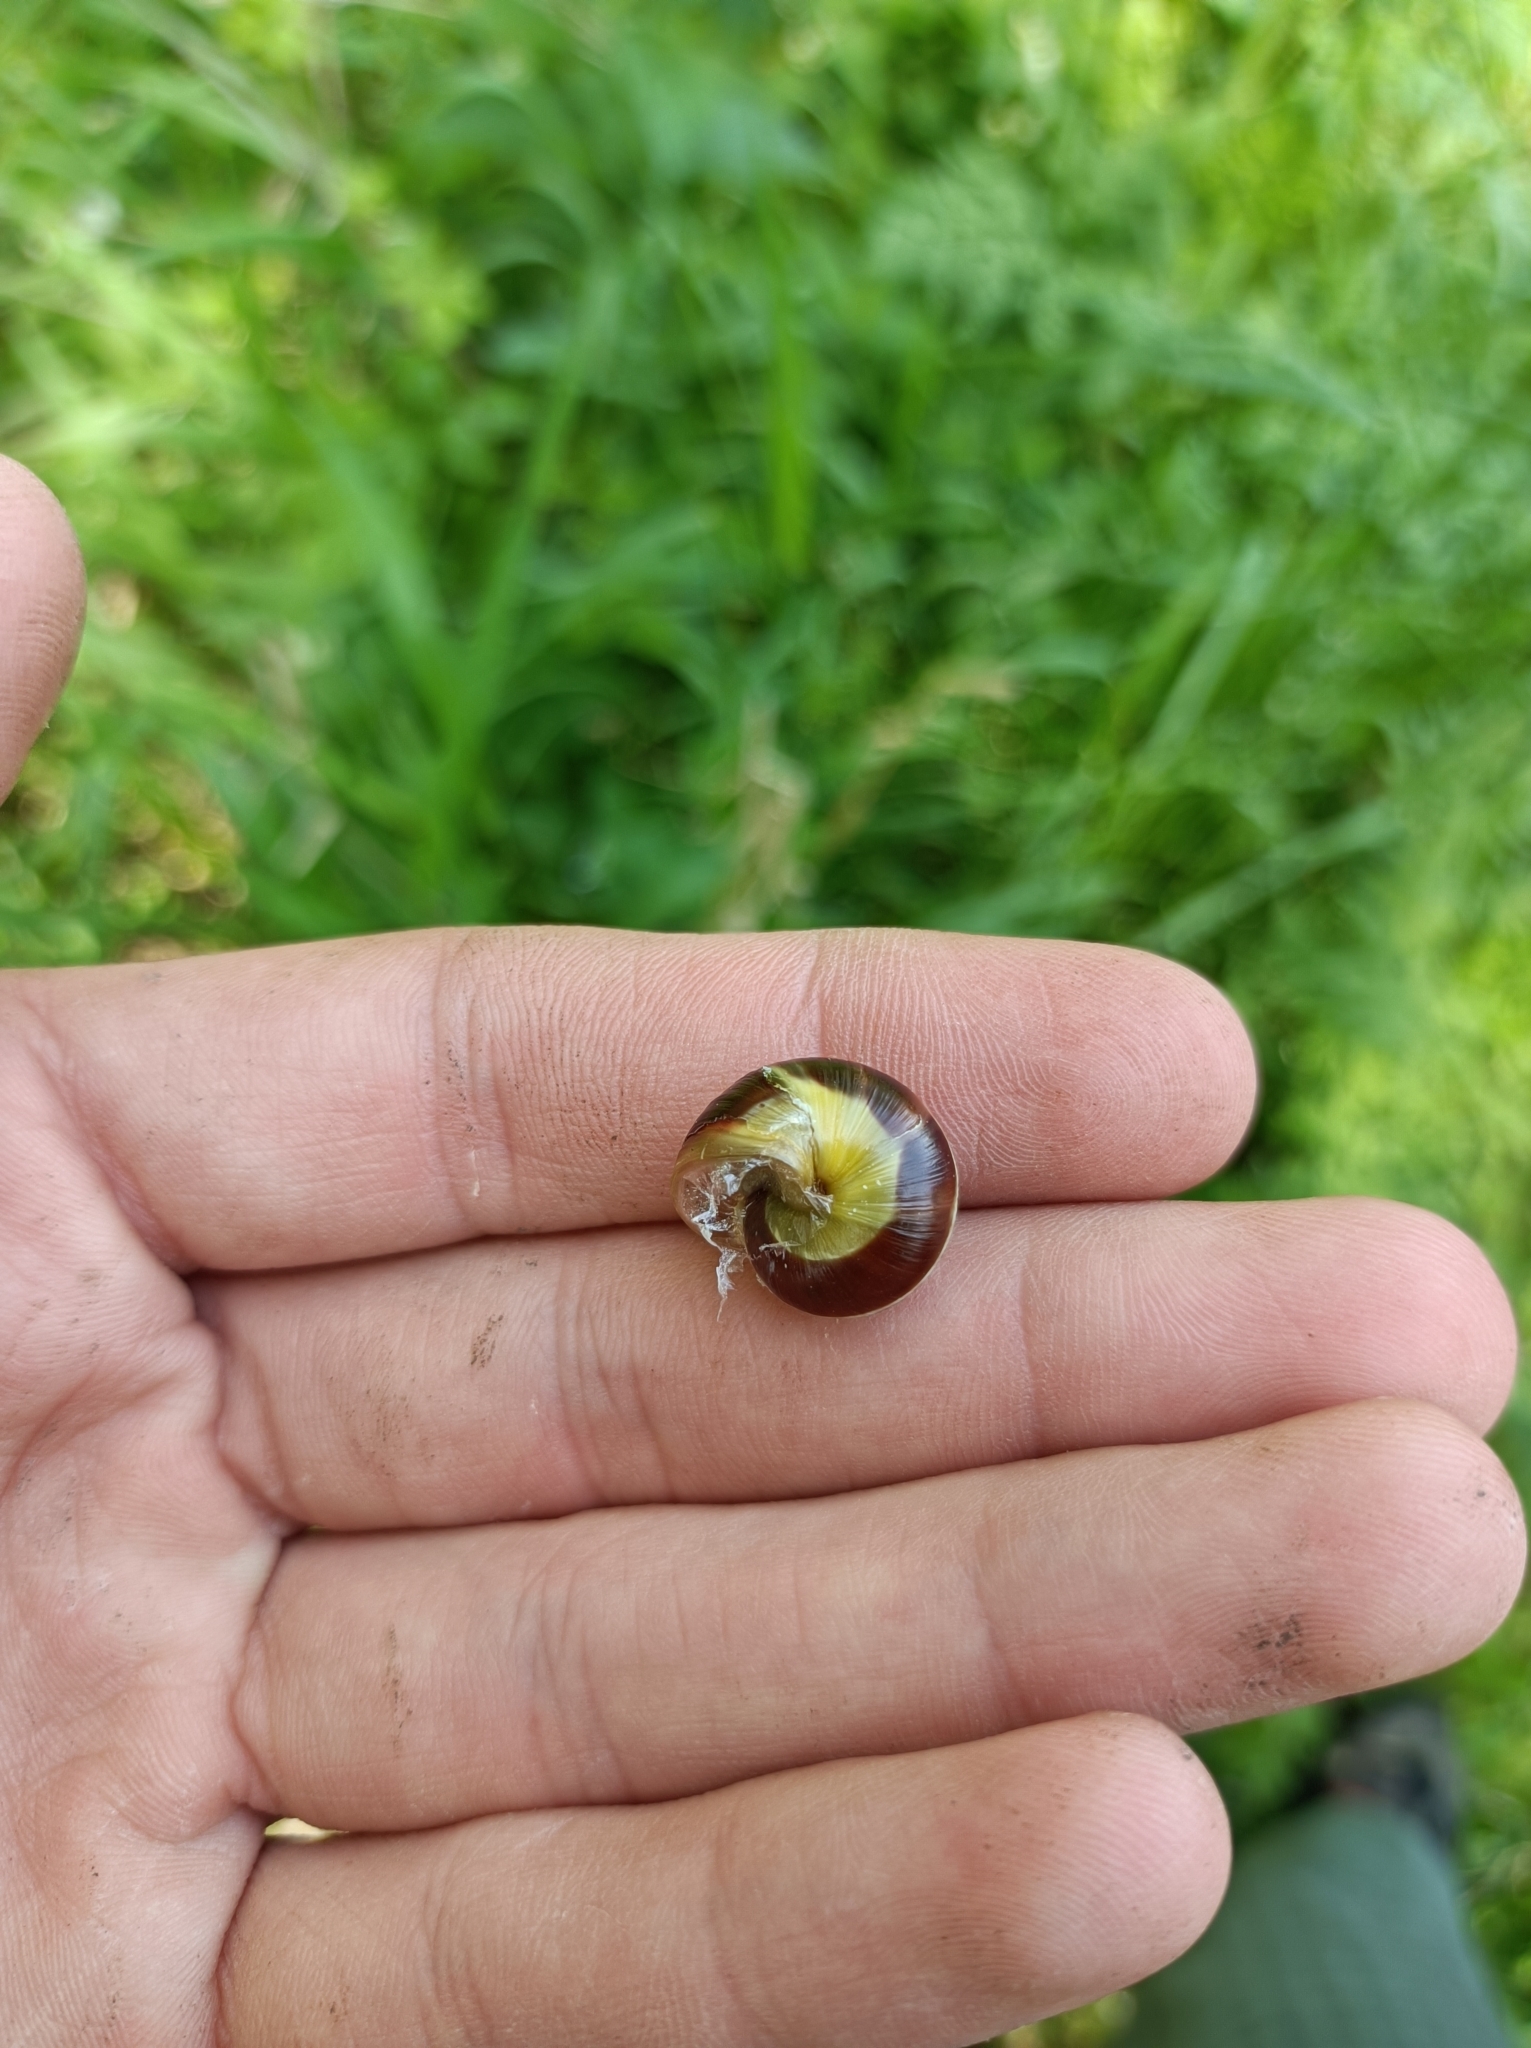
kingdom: Animalia
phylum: Mollusca
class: Gastropoda
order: Stylommatophora
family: Helicidae
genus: Cepaea
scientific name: Cepaea hortensis
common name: White-lip gardensnail
